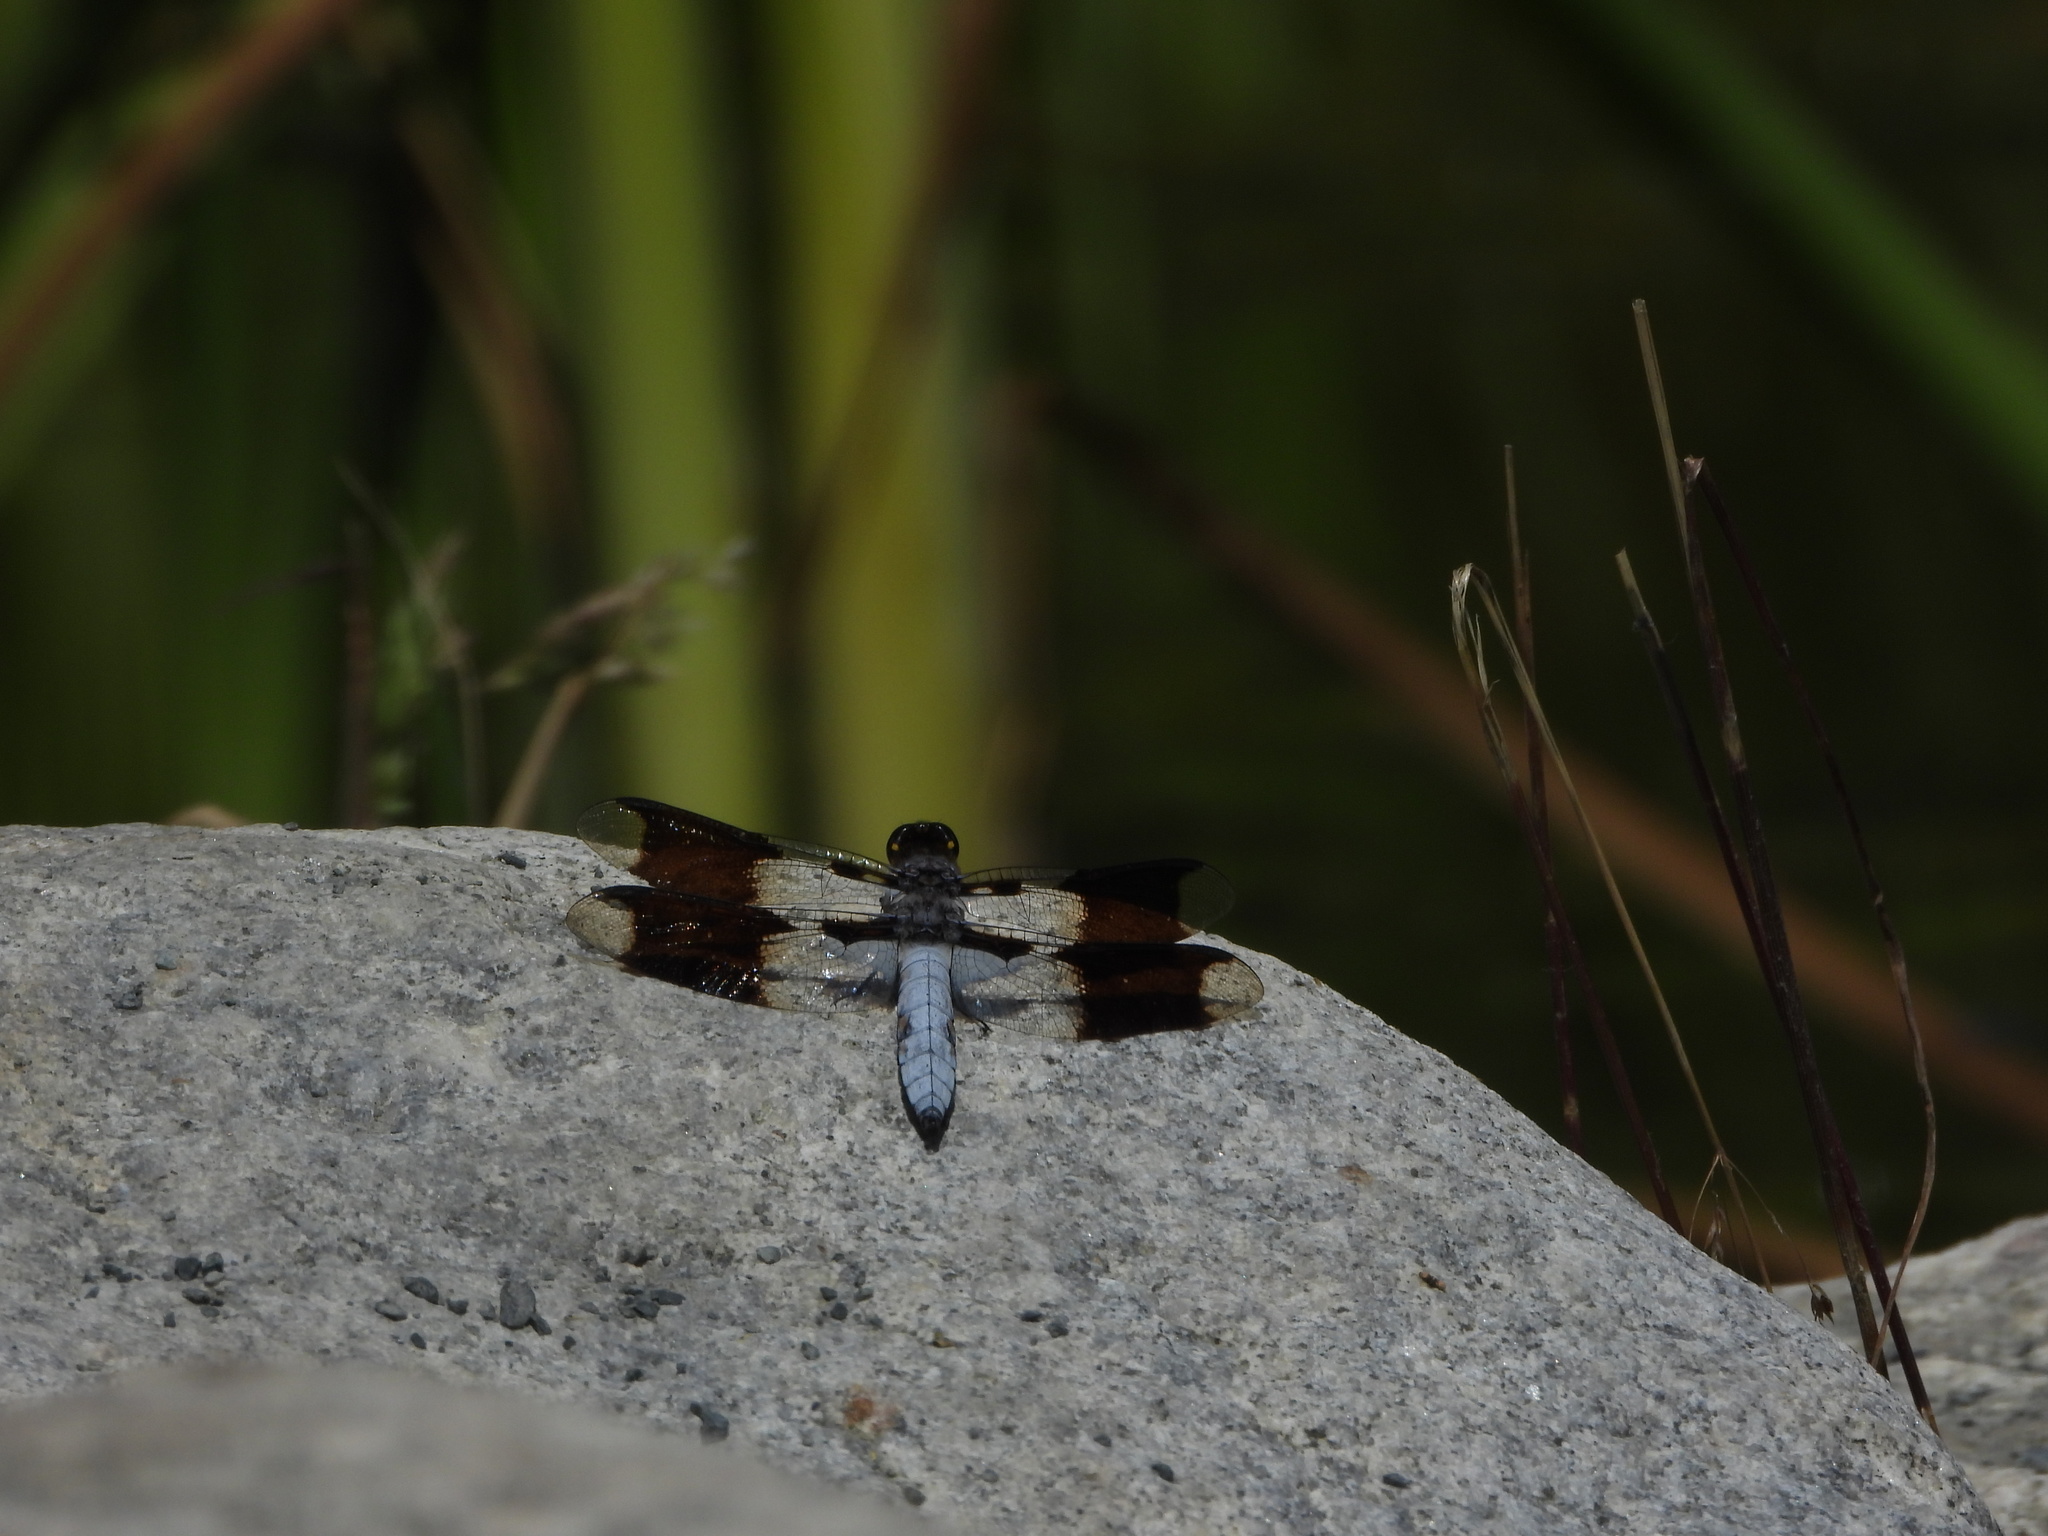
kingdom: Animalia
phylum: Arthropoda
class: Insecta
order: Odonata
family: Libellulidae
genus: Plathemis
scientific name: Plathemis lydia
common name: Common whitetail
